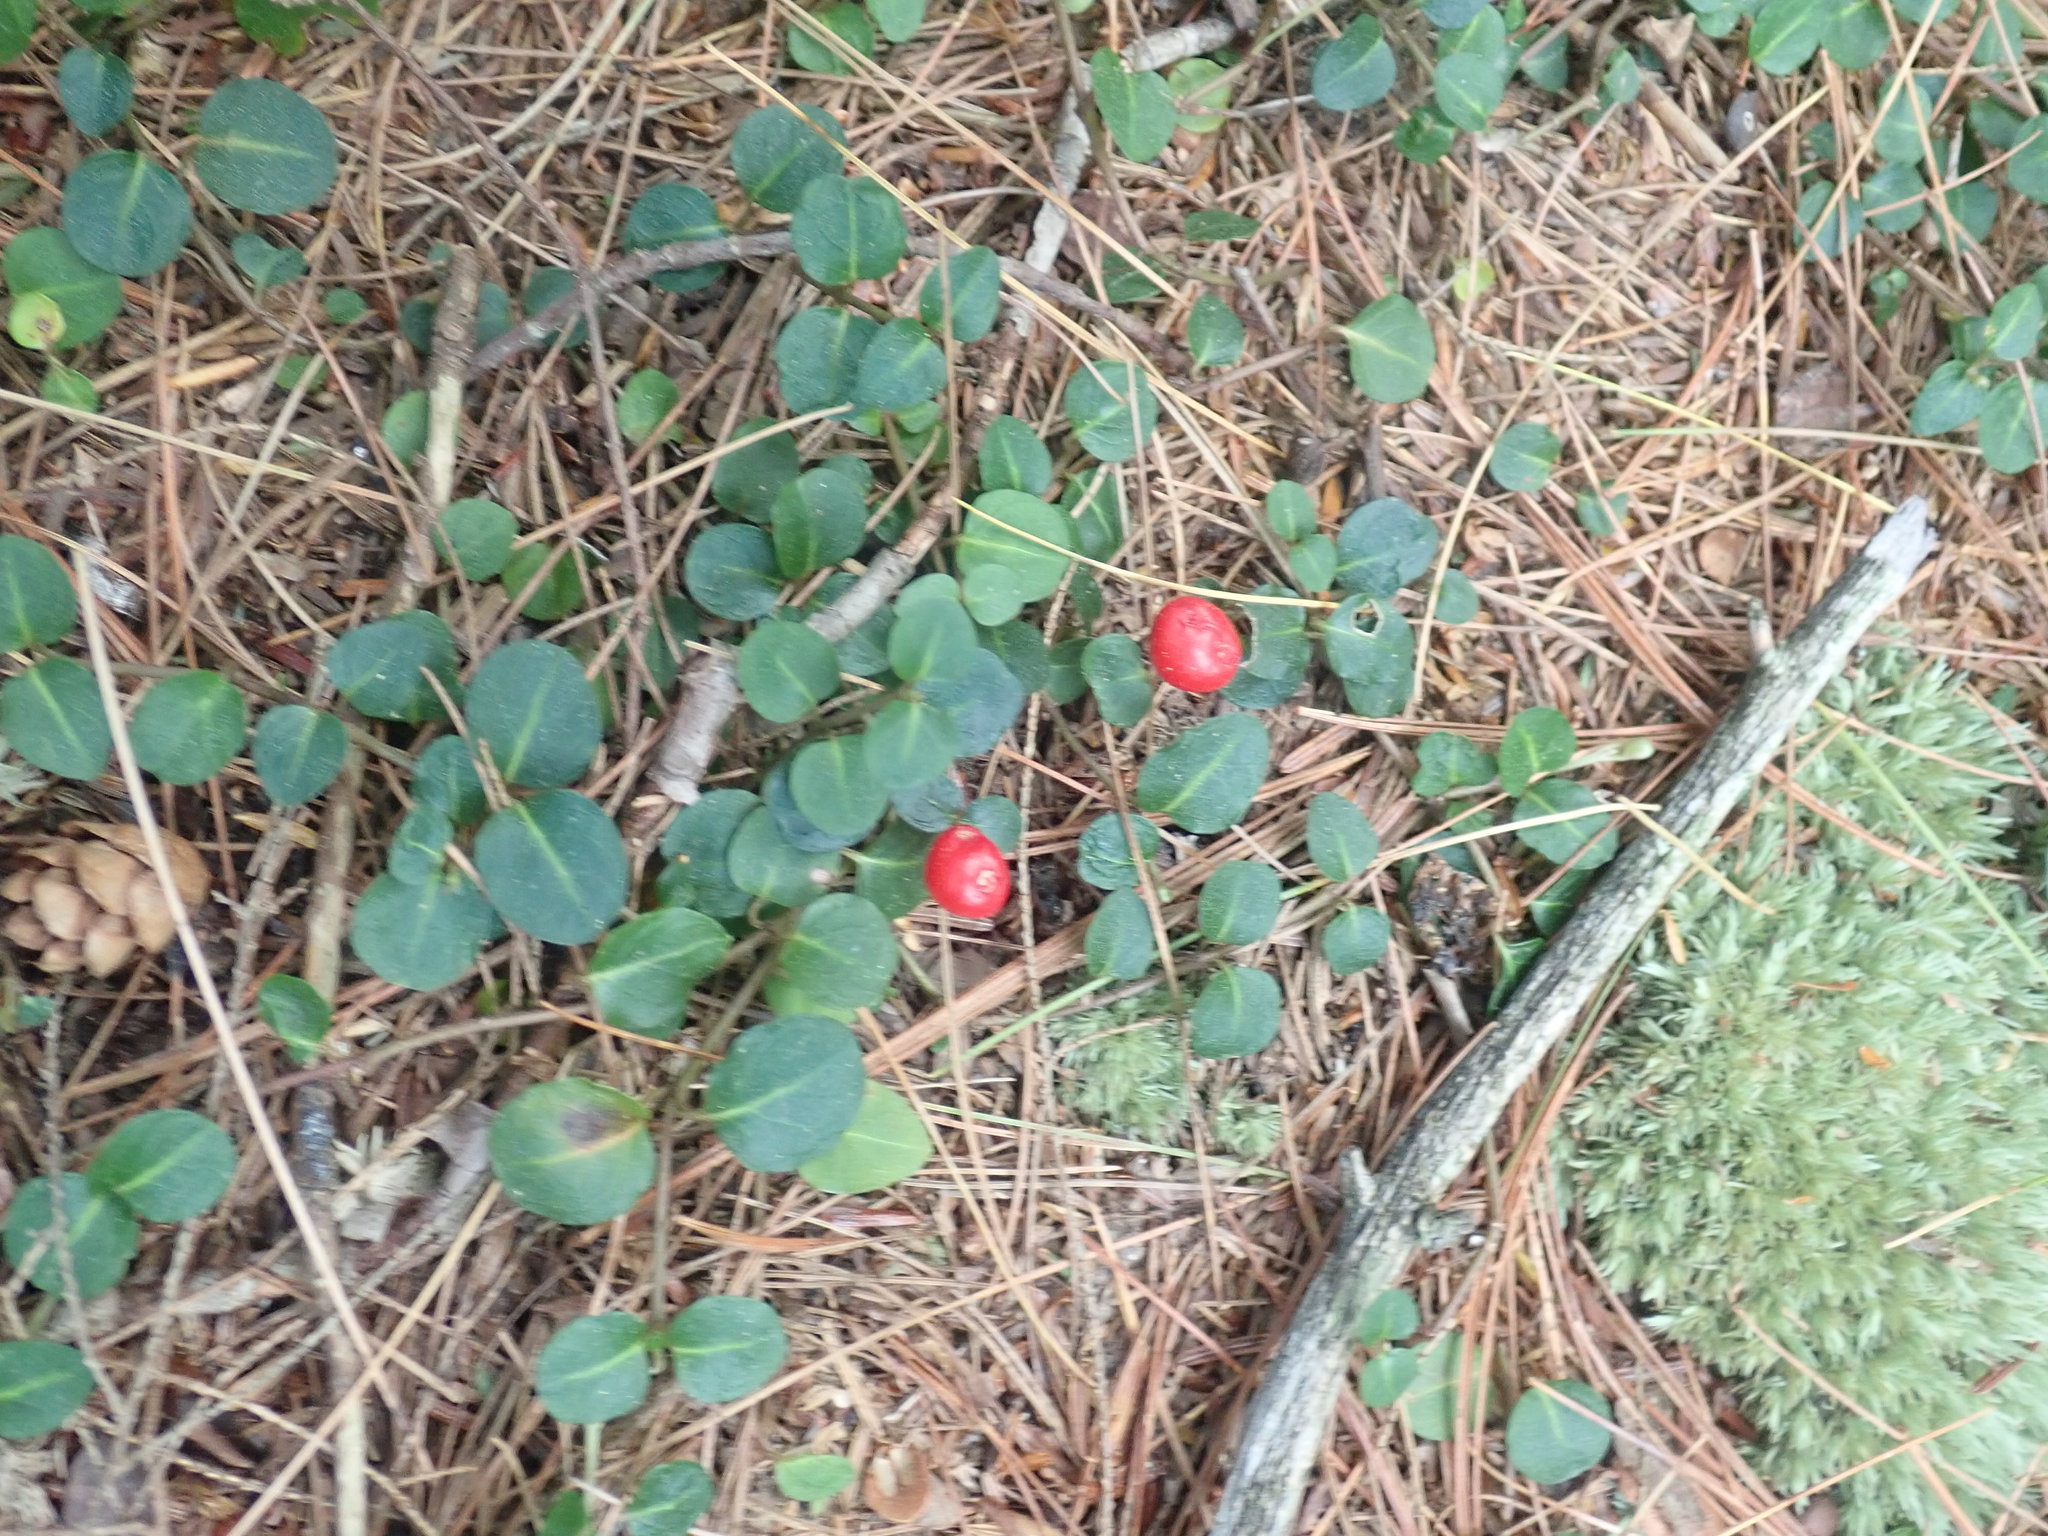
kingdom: Plantae
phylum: Tracheophyta
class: Magnoliopsida
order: Gentianales
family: Rubiaceae
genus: Mitchella
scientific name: Mitchella repens
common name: Partridge-berry
